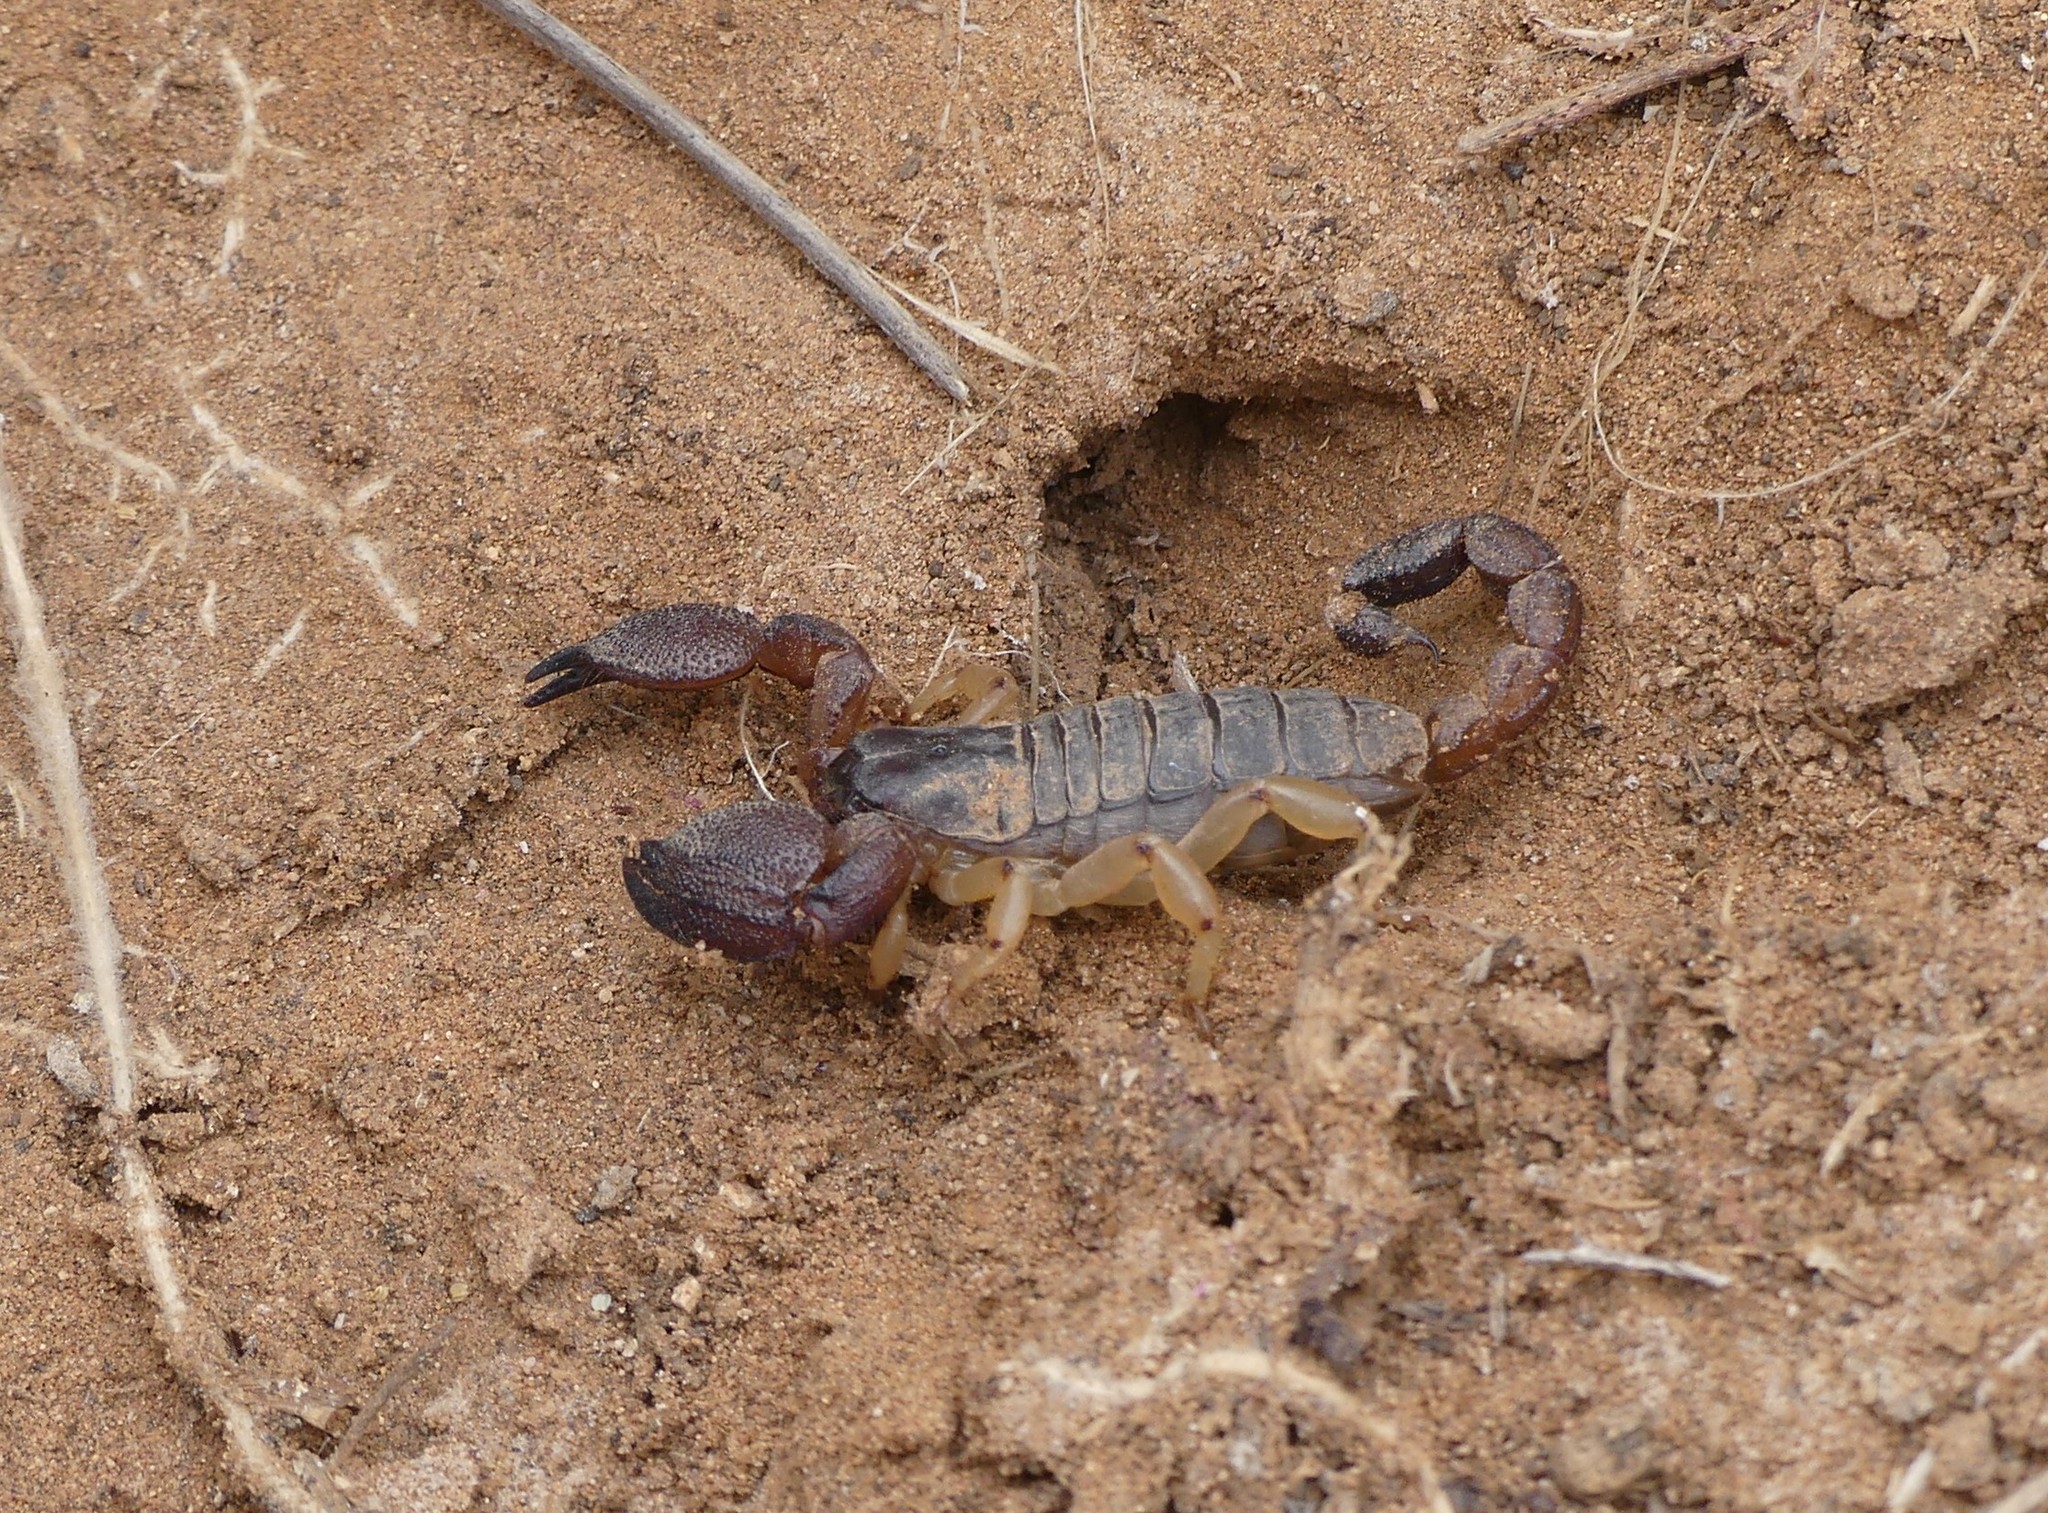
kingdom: Animalia
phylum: Arthropoda
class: Arachnida
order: Scorpiones
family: Scorpionidae
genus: Scorpio
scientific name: Scorpio mogadorensis
